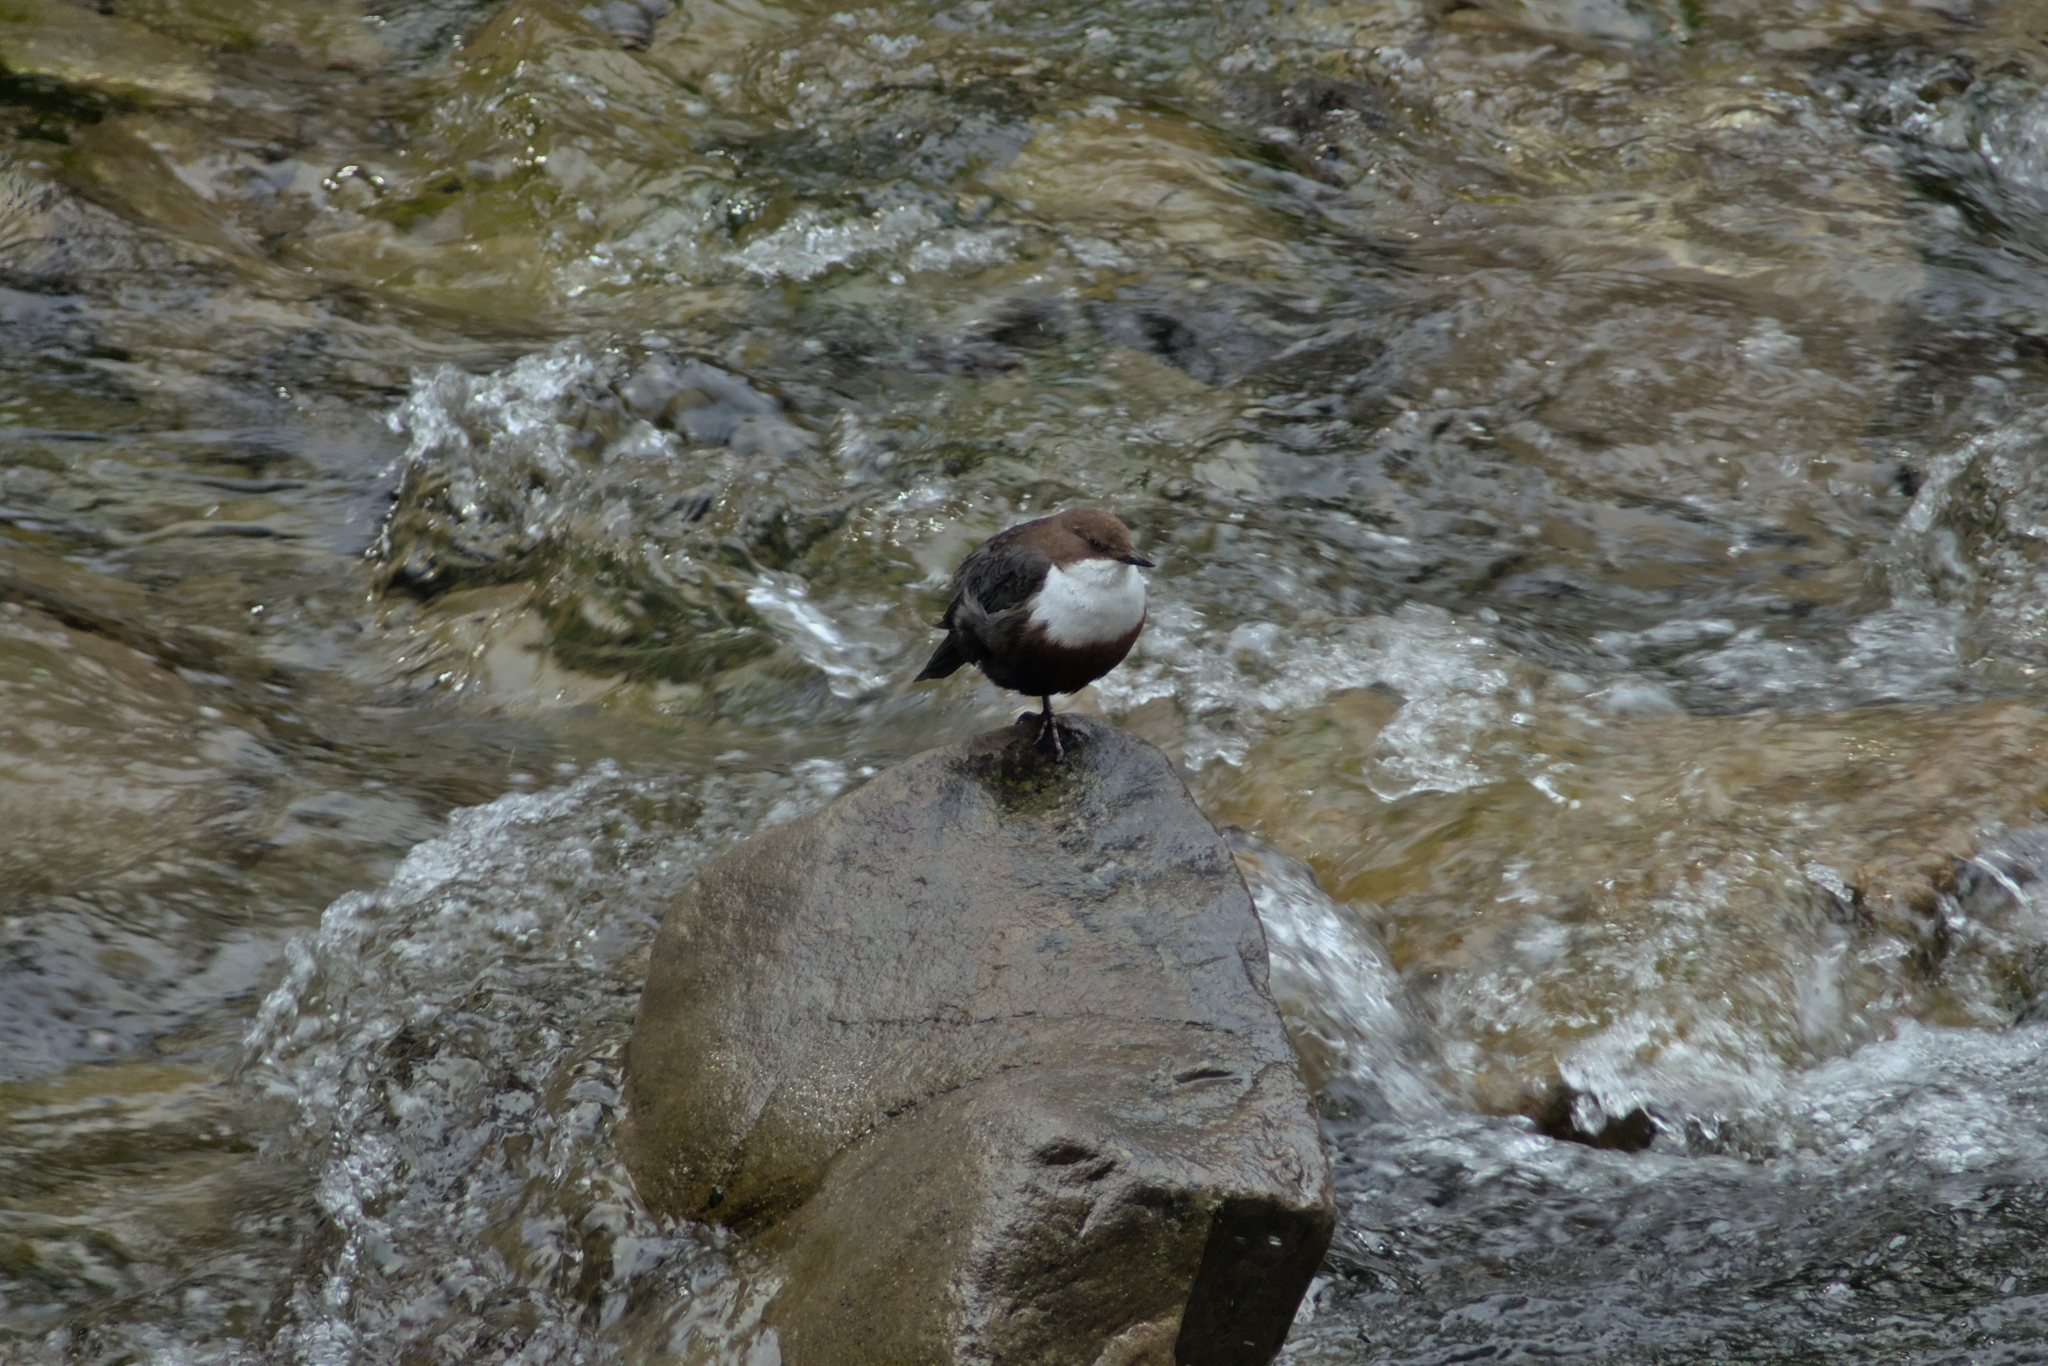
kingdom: Animalia
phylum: Chordata
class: Aves
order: Passeriformes
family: Cinclidae
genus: Cinclus
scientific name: Cinclus cinclus
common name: White-throated dipper
